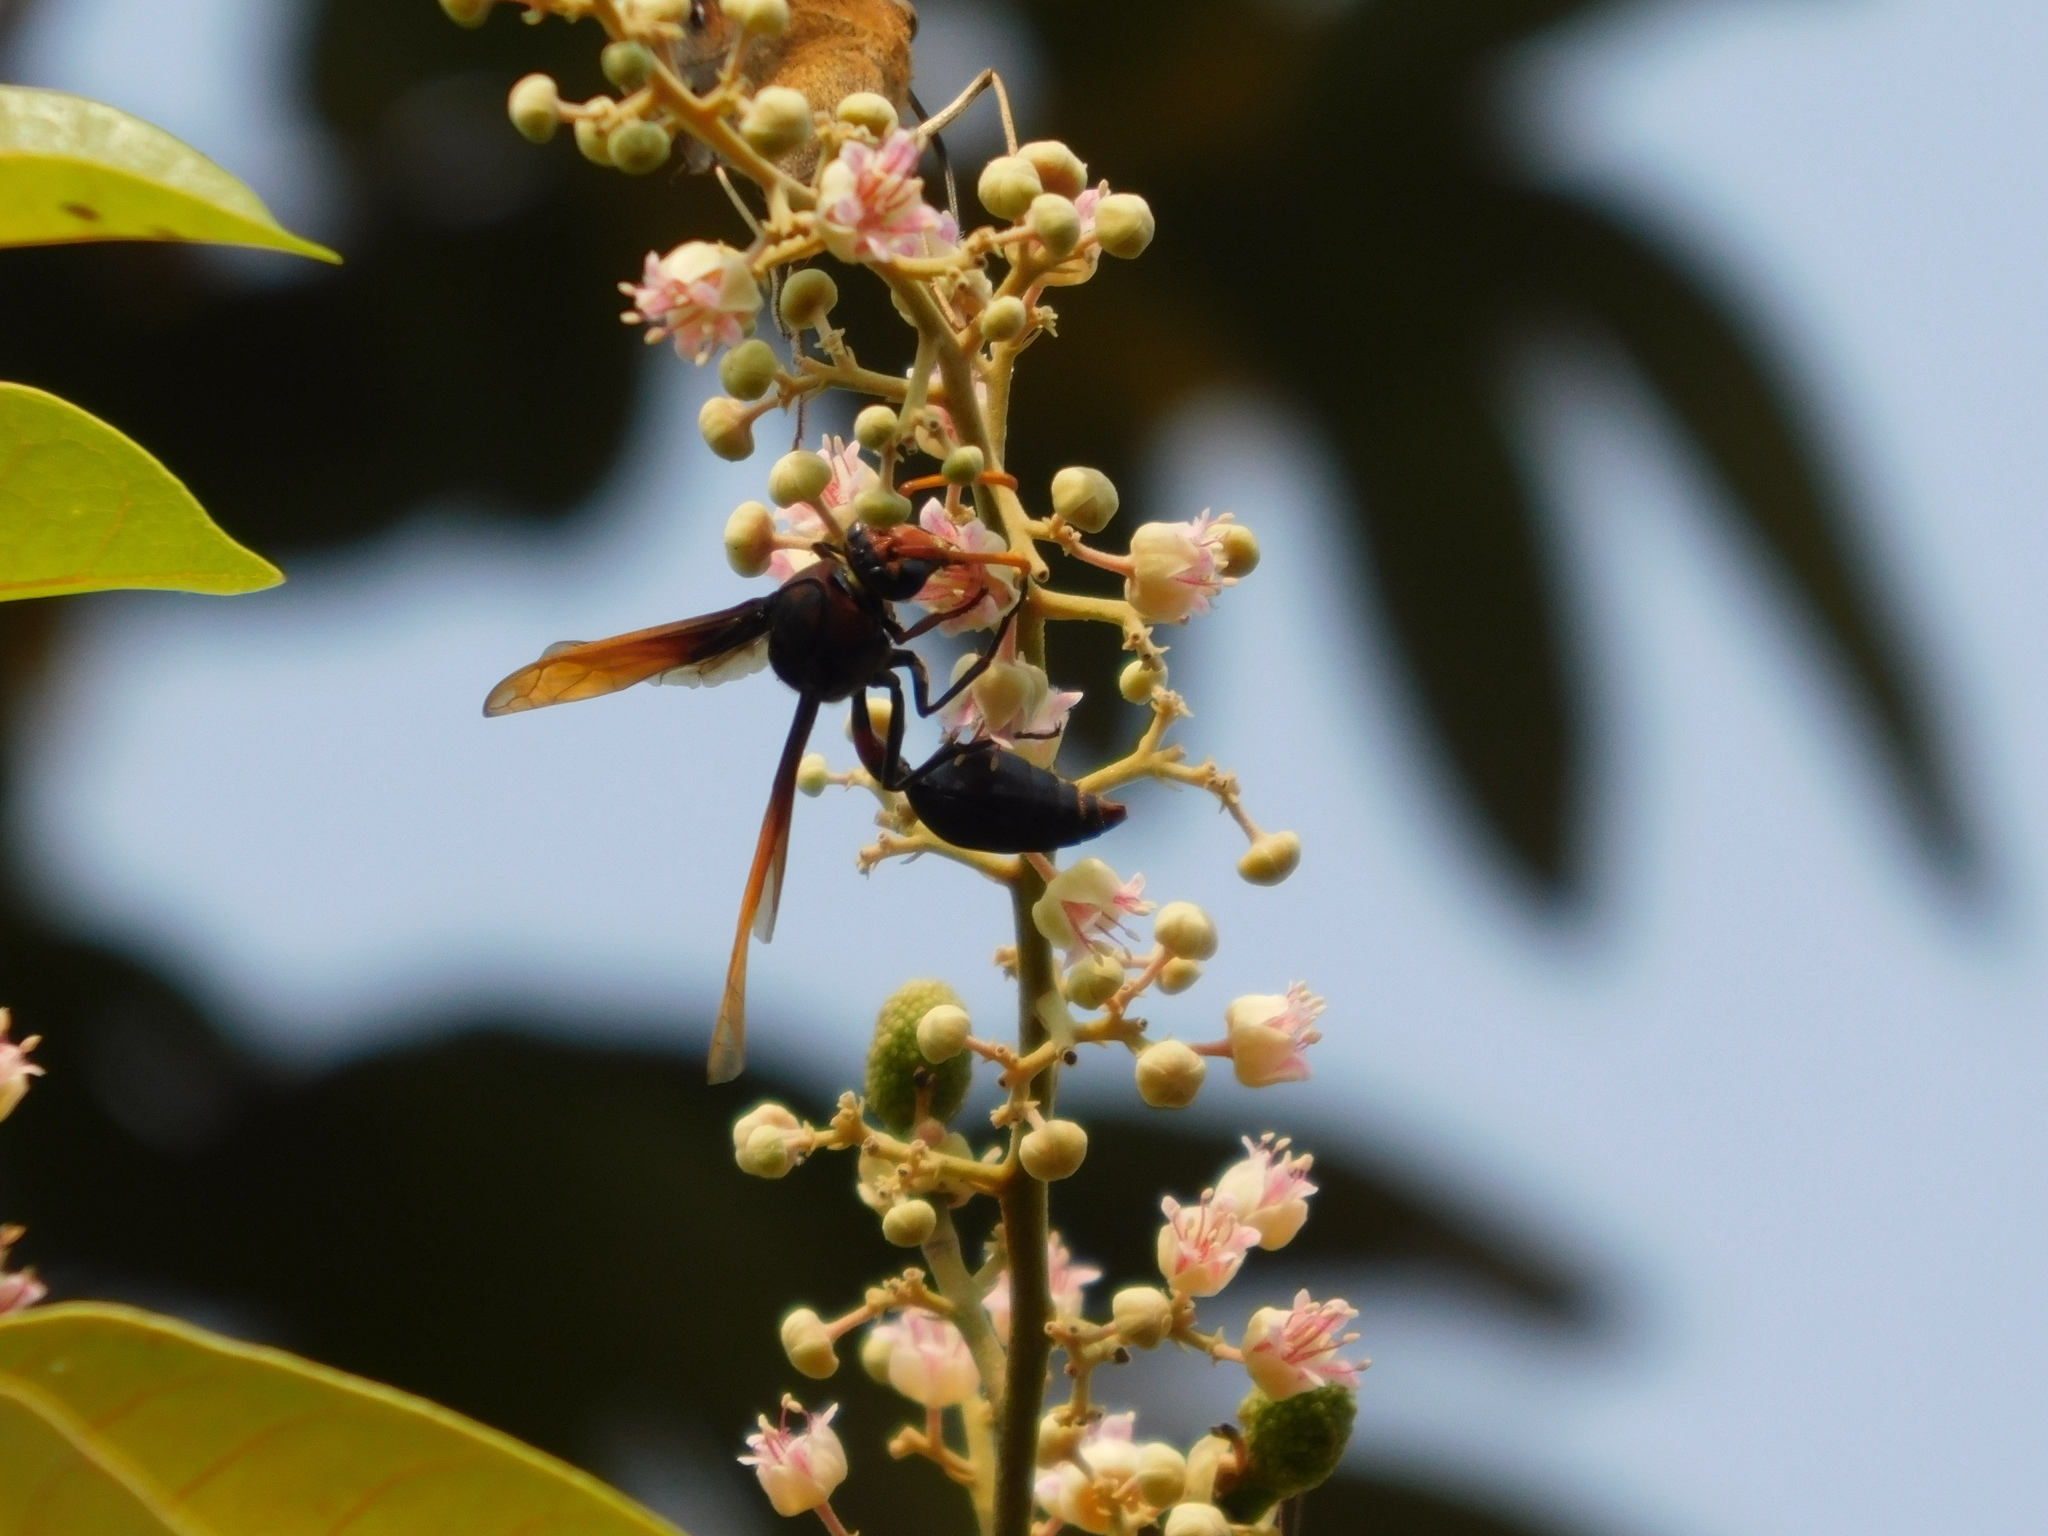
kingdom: Animalia
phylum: Arthropoda
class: Insecta
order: Hymenoptera
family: Eumenidae
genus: Delta
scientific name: Delta pyriforme
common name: Wasp
